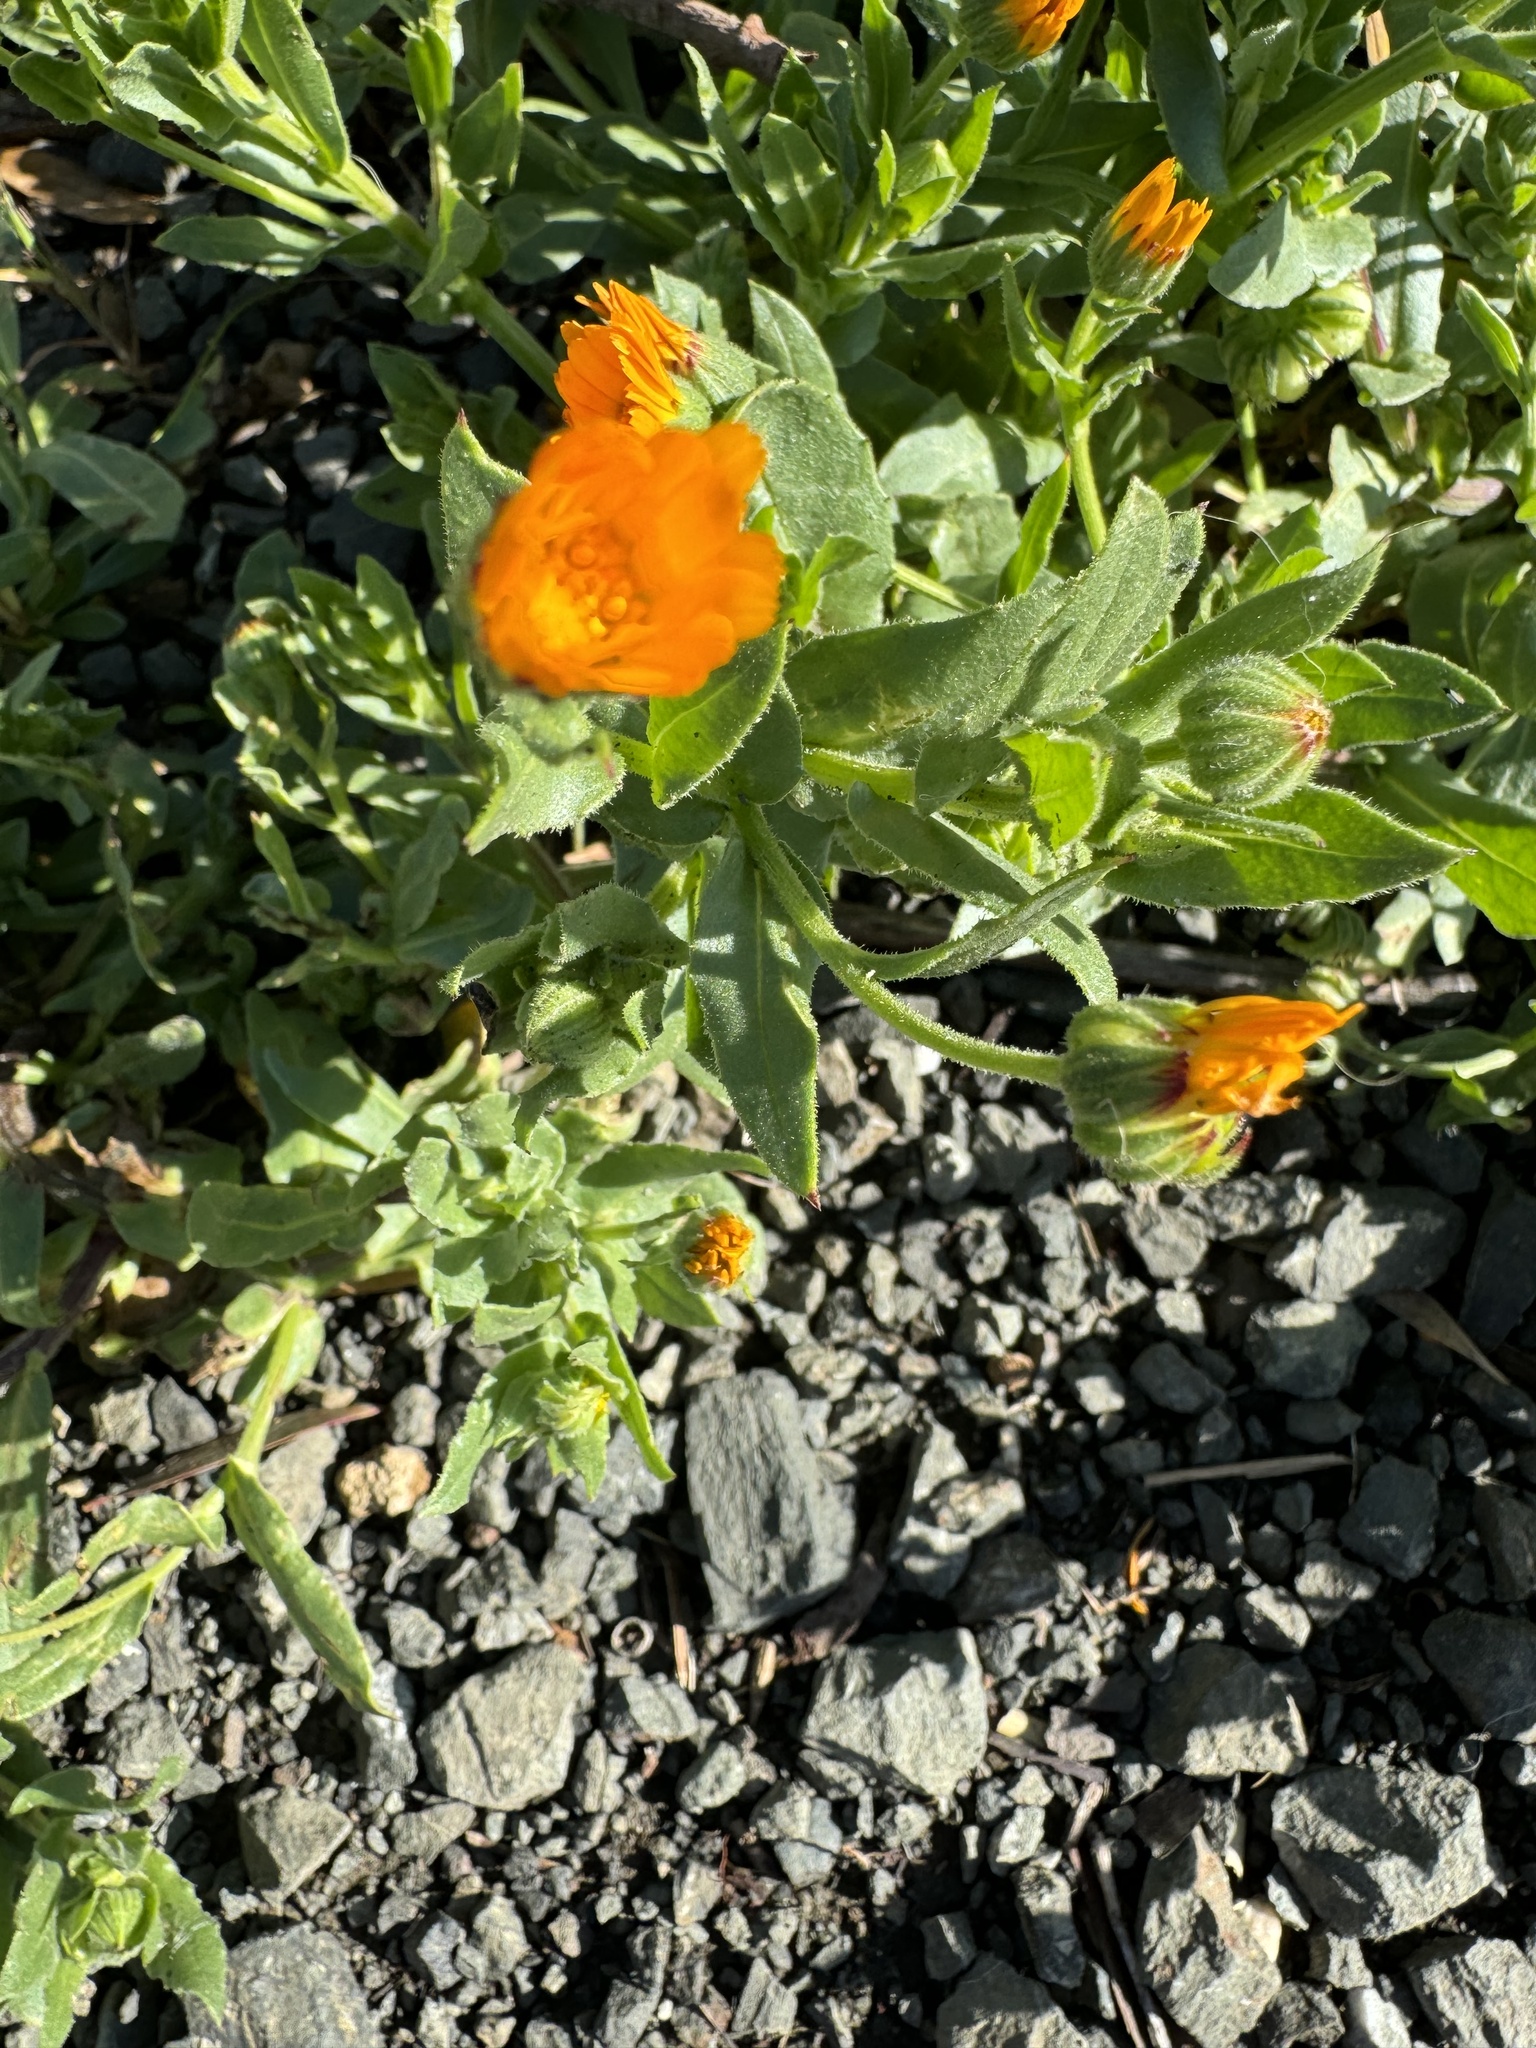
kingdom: Plantae
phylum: Tracheophyta
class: Magnoliopsida
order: Asterales
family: Asteraceae
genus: Calendula
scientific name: Calendula arvensis
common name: Field marigold
